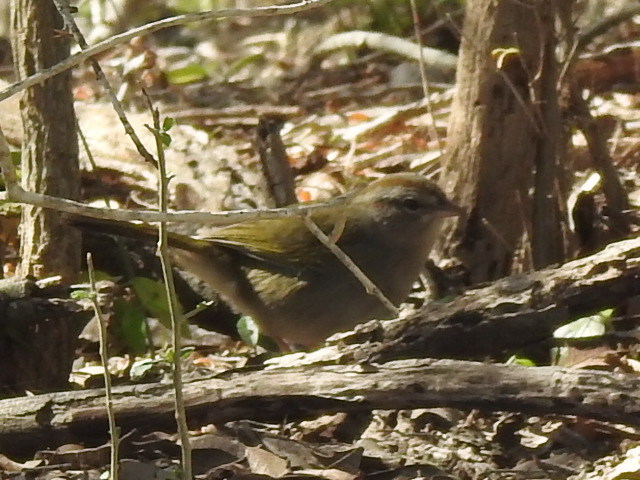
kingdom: Animalia
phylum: Chordata
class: Aves
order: Passeriformes
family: Passerellidae
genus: Arremonops
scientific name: Arremonops rufivirgatus
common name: Olive sparrow
